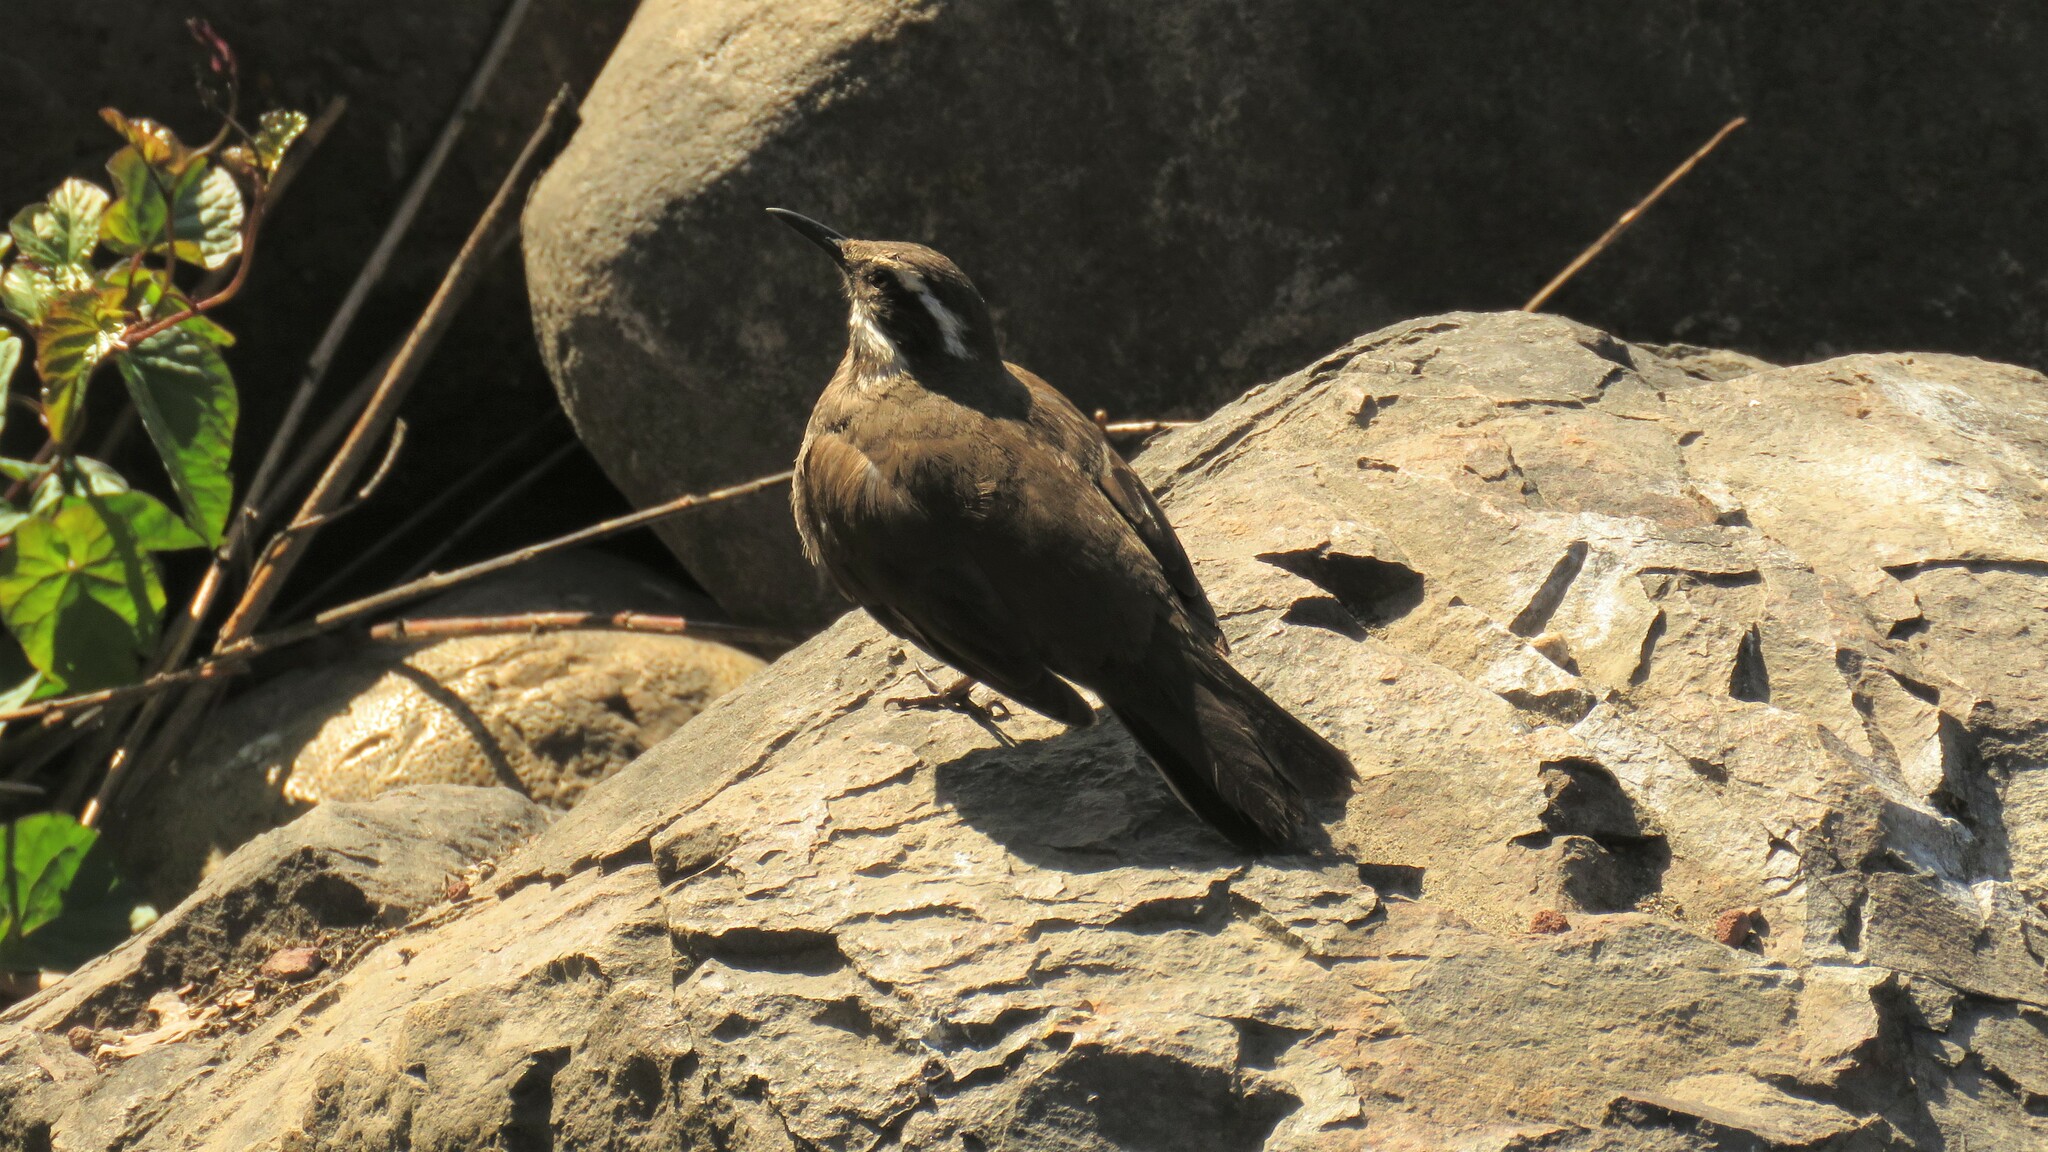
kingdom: Animalia
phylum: Chordata
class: Aves
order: Passeriformes
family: Furnariidae
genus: Cinclodes
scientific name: Cinclodes patagonicus
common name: Dark-bellied cinclodes
